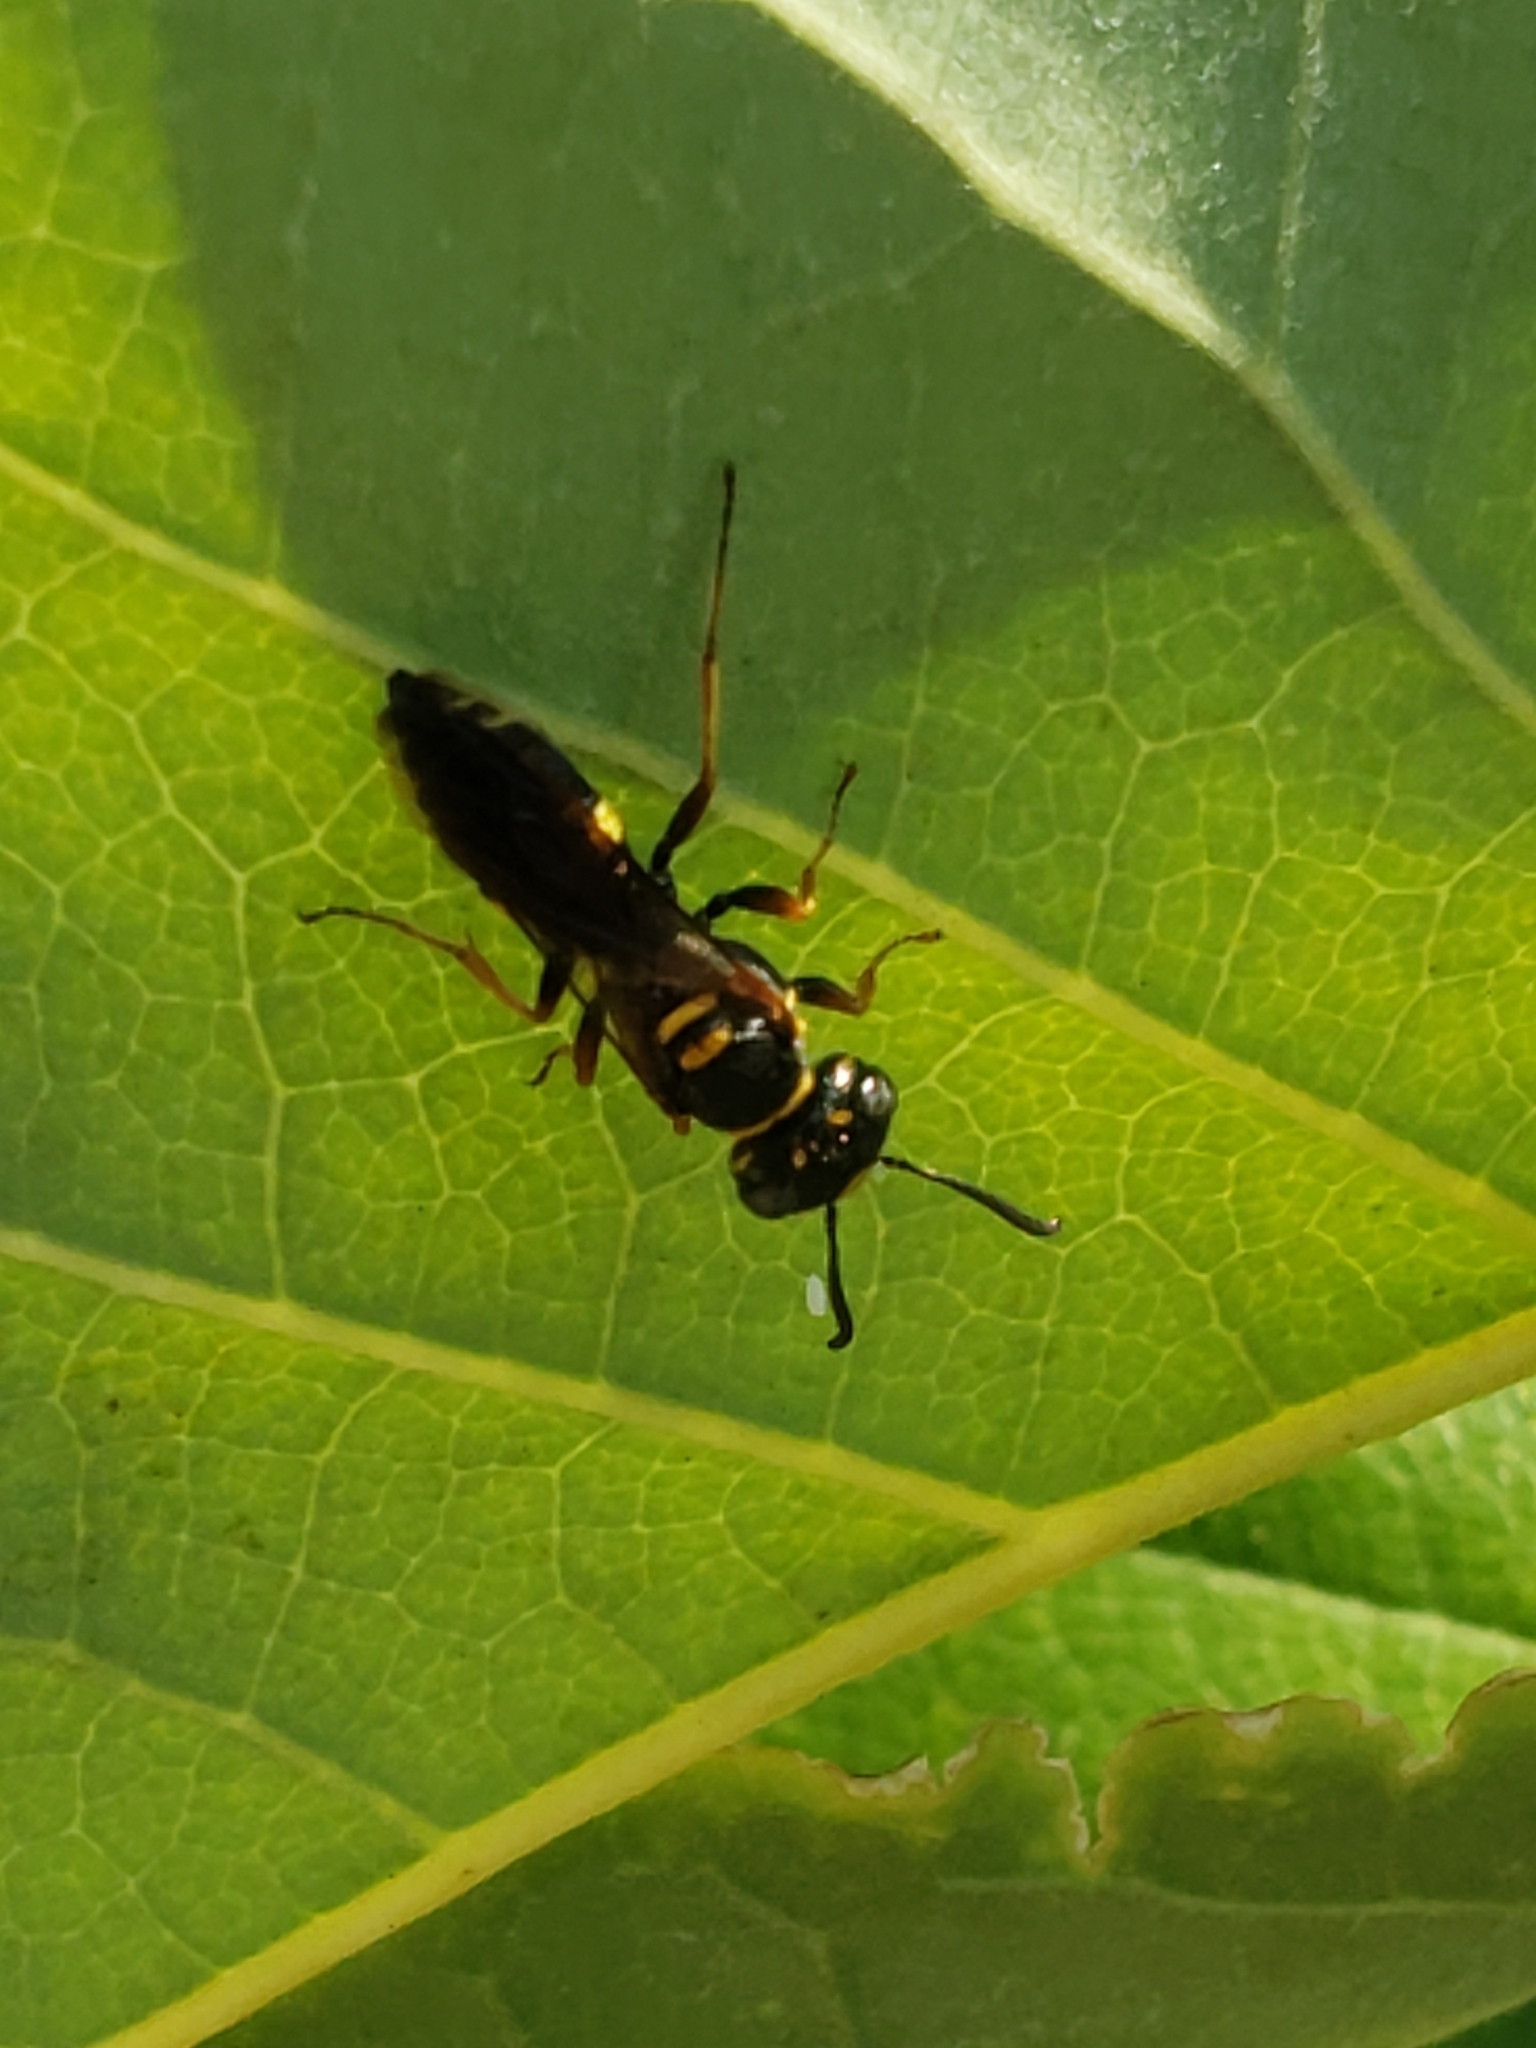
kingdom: Animalia
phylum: Arthropoda
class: Insecta
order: Hymenoptera
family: Crabronidae
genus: Philanthus
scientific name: Philanthus gibbosus
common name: Humped beewolf
